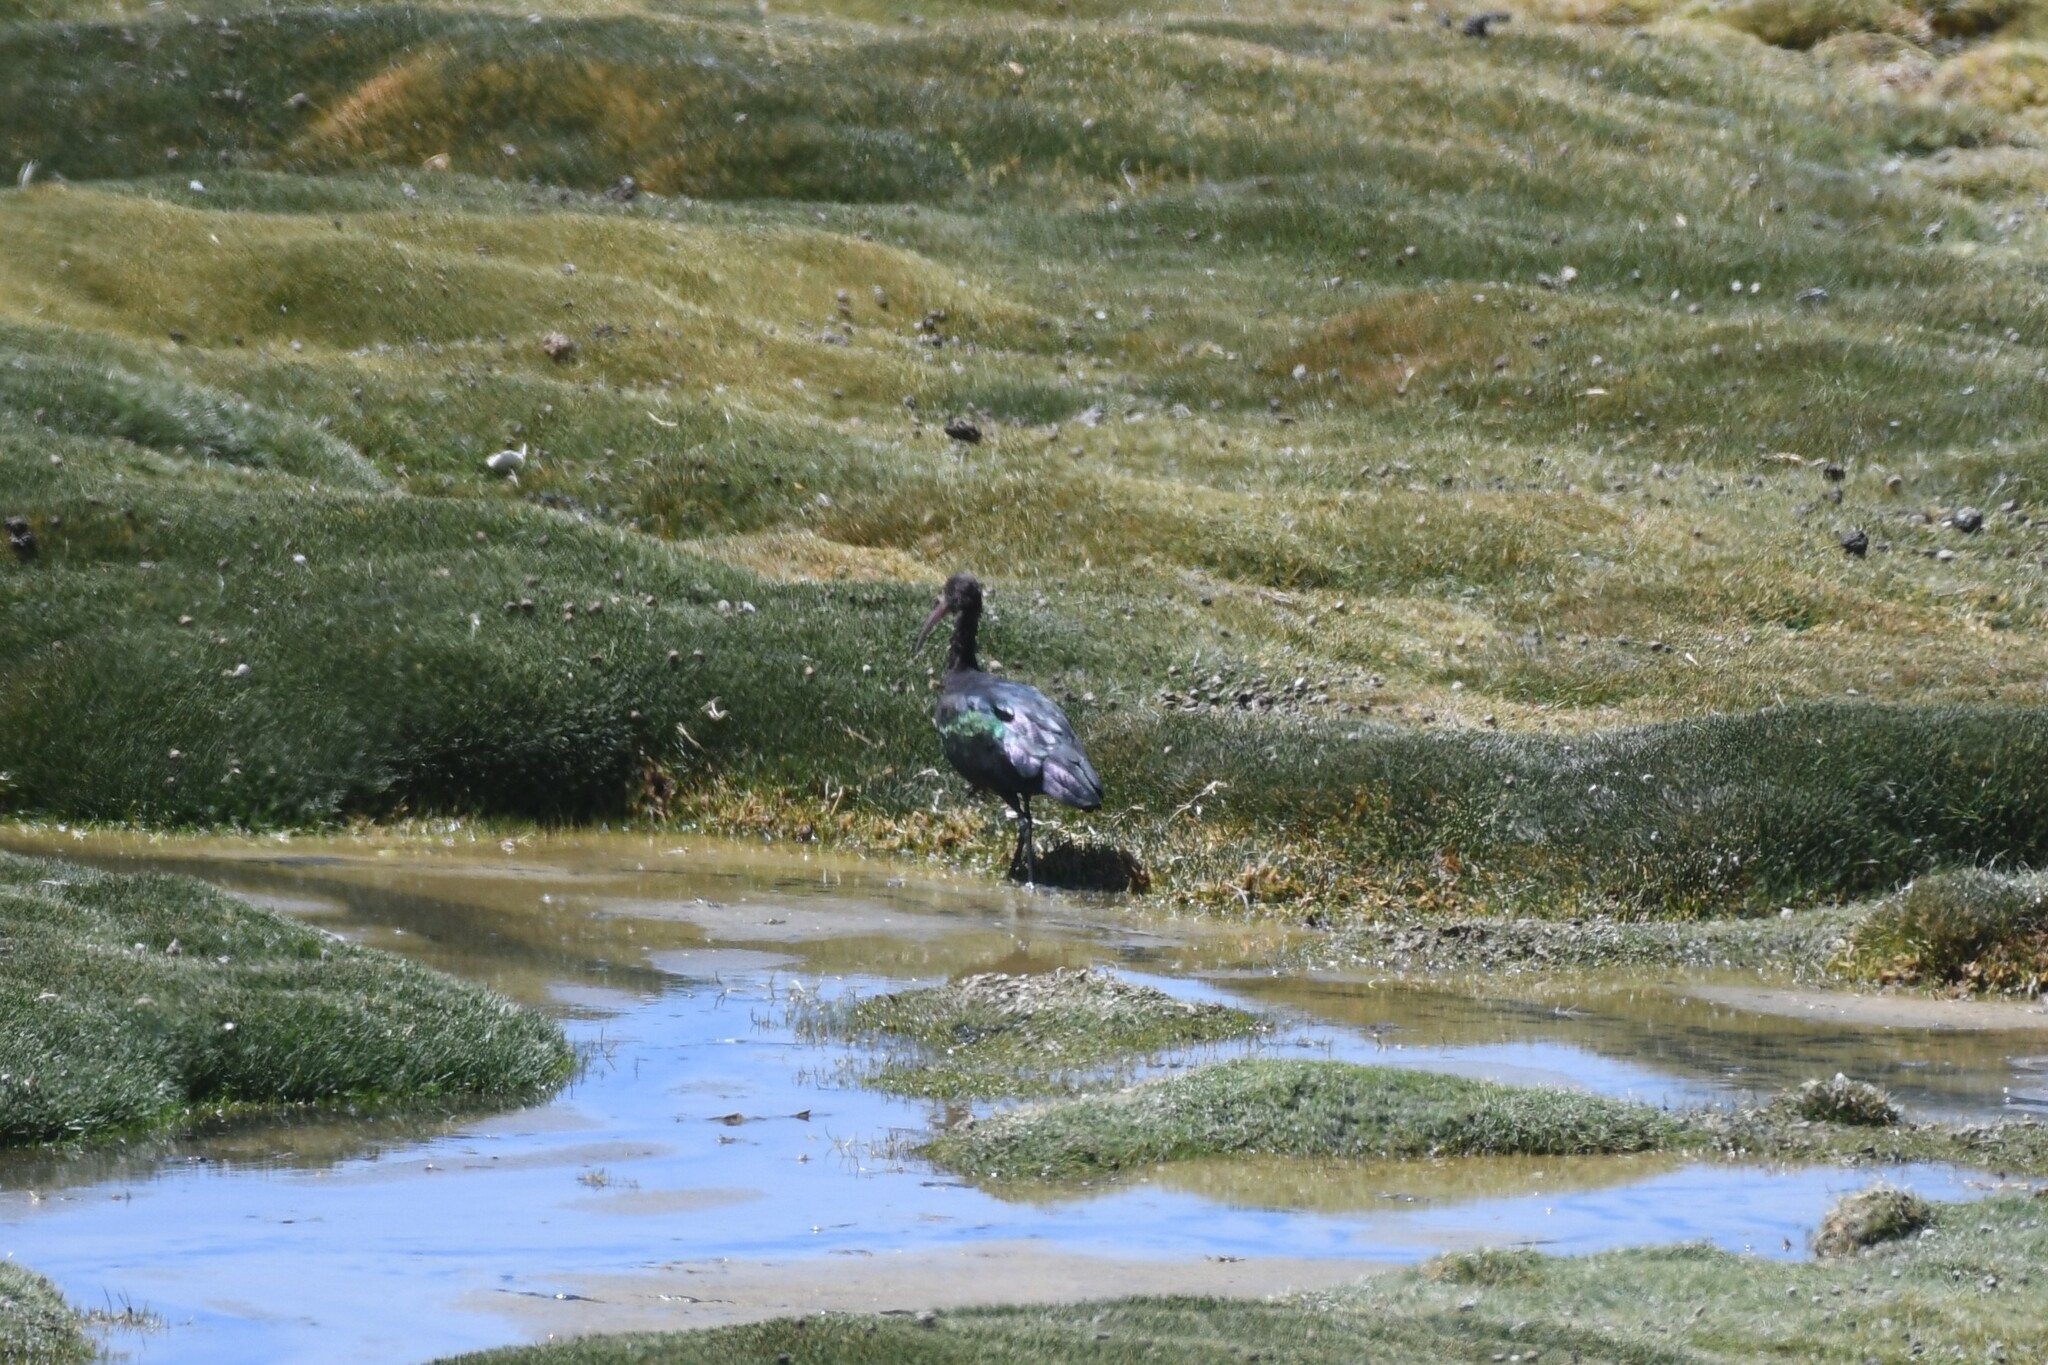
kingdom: Animalia
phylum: Chordata
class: Aves
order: Pelecaniformes
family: Threskiornithidae
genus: Plegadis
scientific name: Plegadis ridgwayi
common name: Puna ibis
